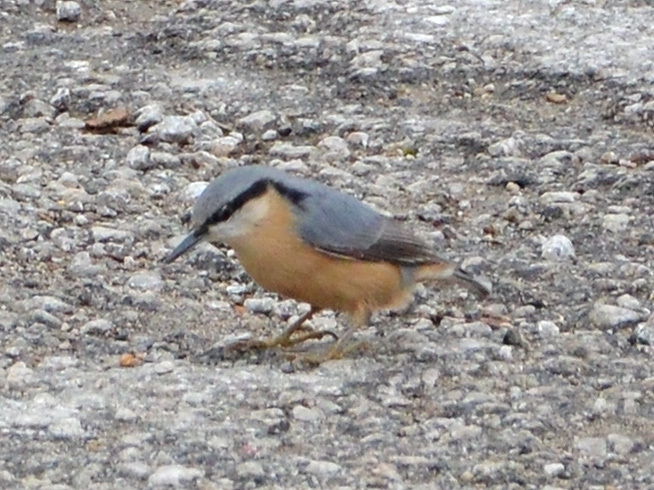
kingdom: Animalia
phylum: Chordata
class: Aves
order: Passeriformes
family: Sittidae
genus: Sitta
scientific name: Sitta europaea
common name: Eurasian nuthatch
